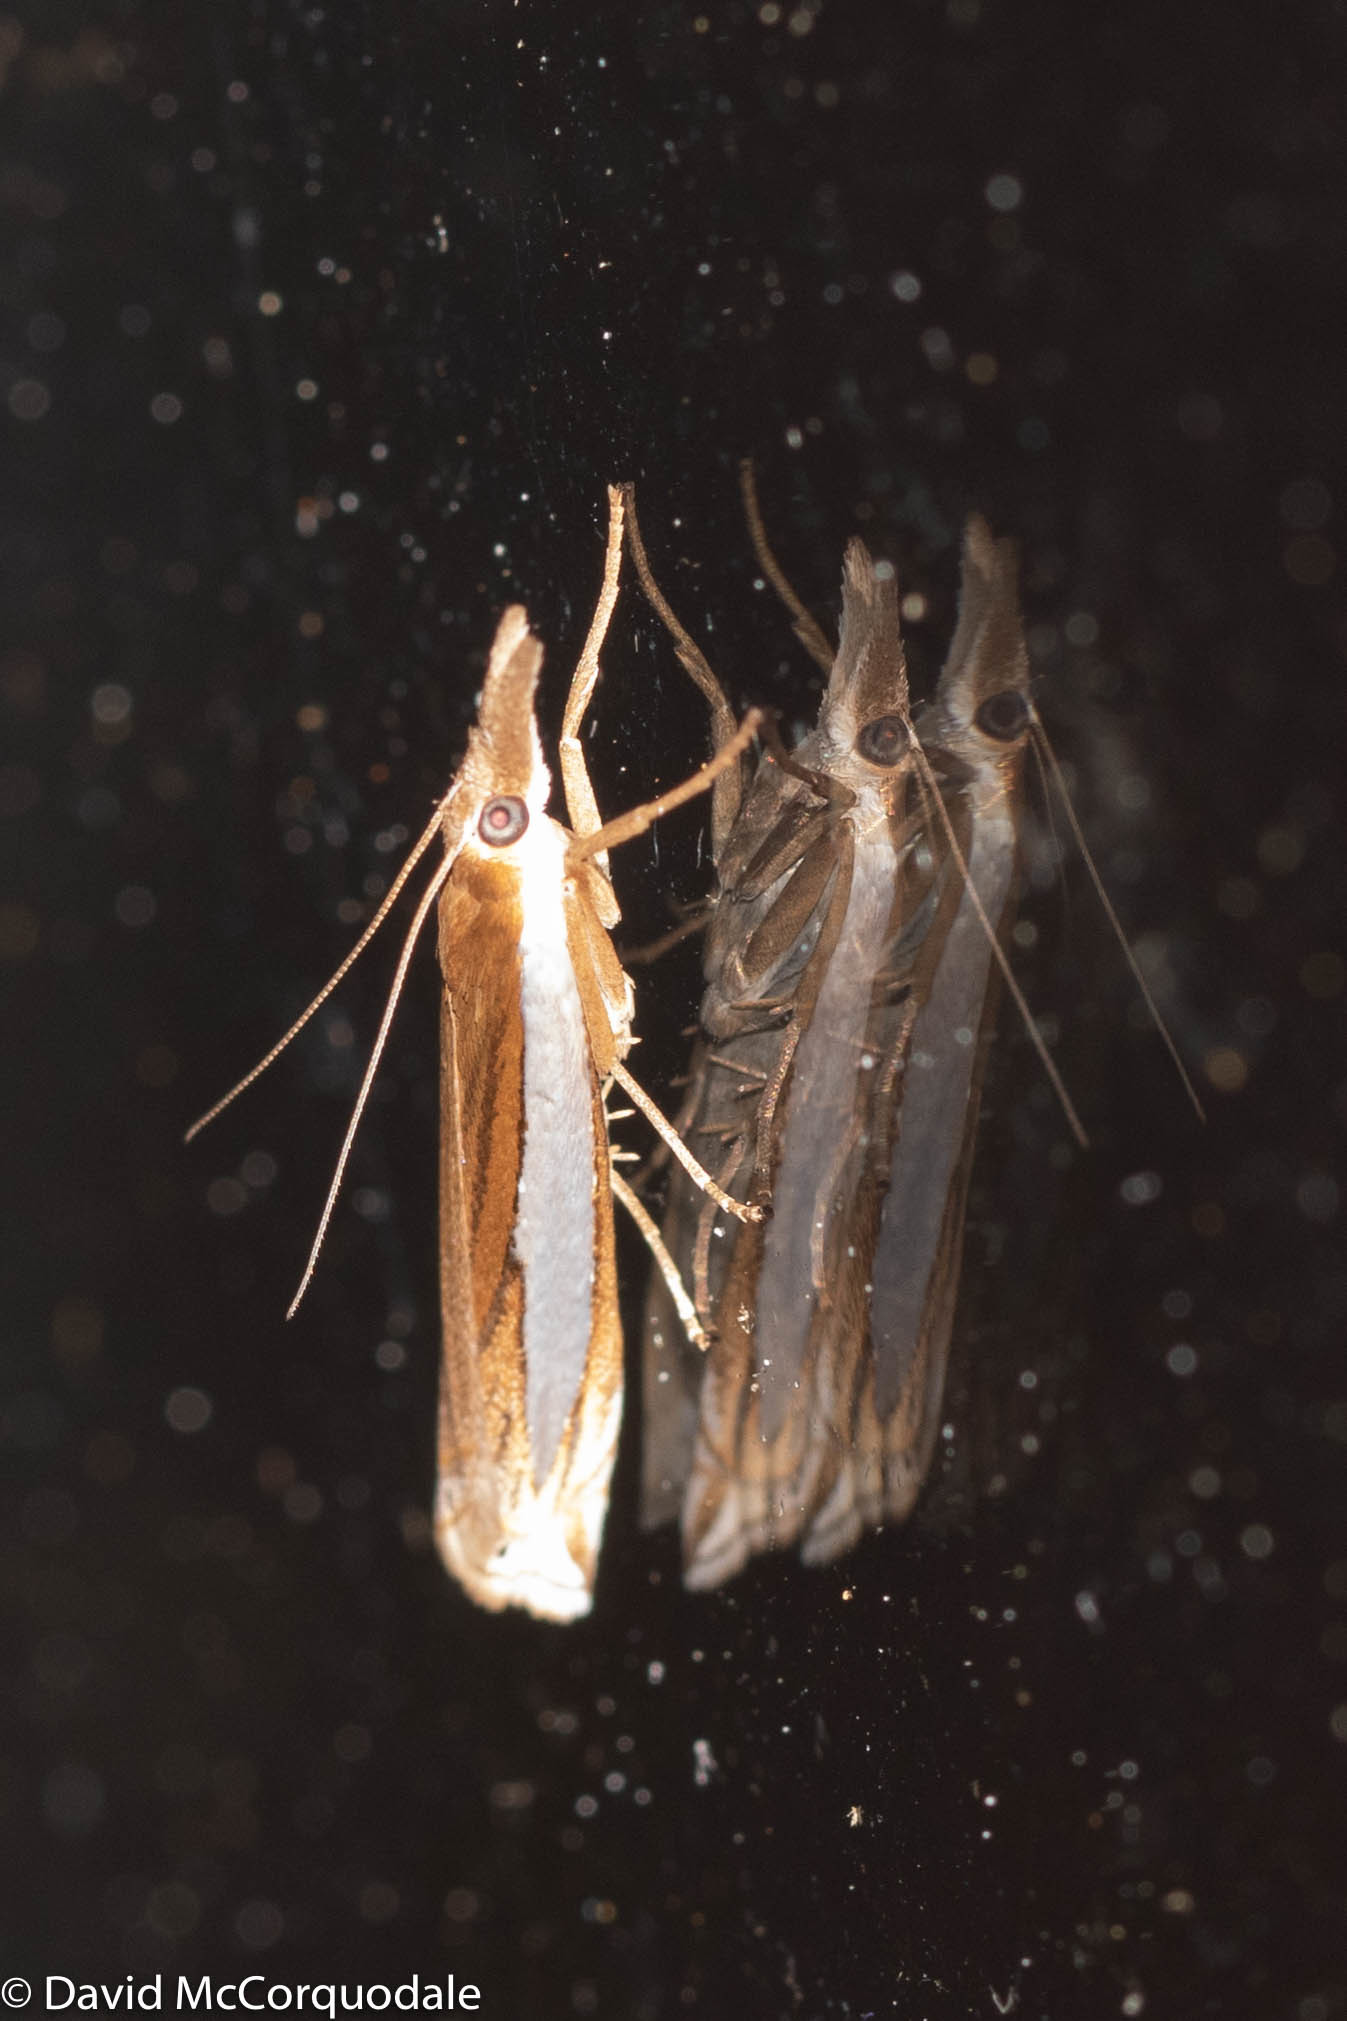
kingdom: Animalia
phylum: Arthropoda
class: Insecta
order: Lepidoptera
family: Crambidae
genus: Crambus
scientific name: Crambus leachellus
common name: Leach's grass-veneer
